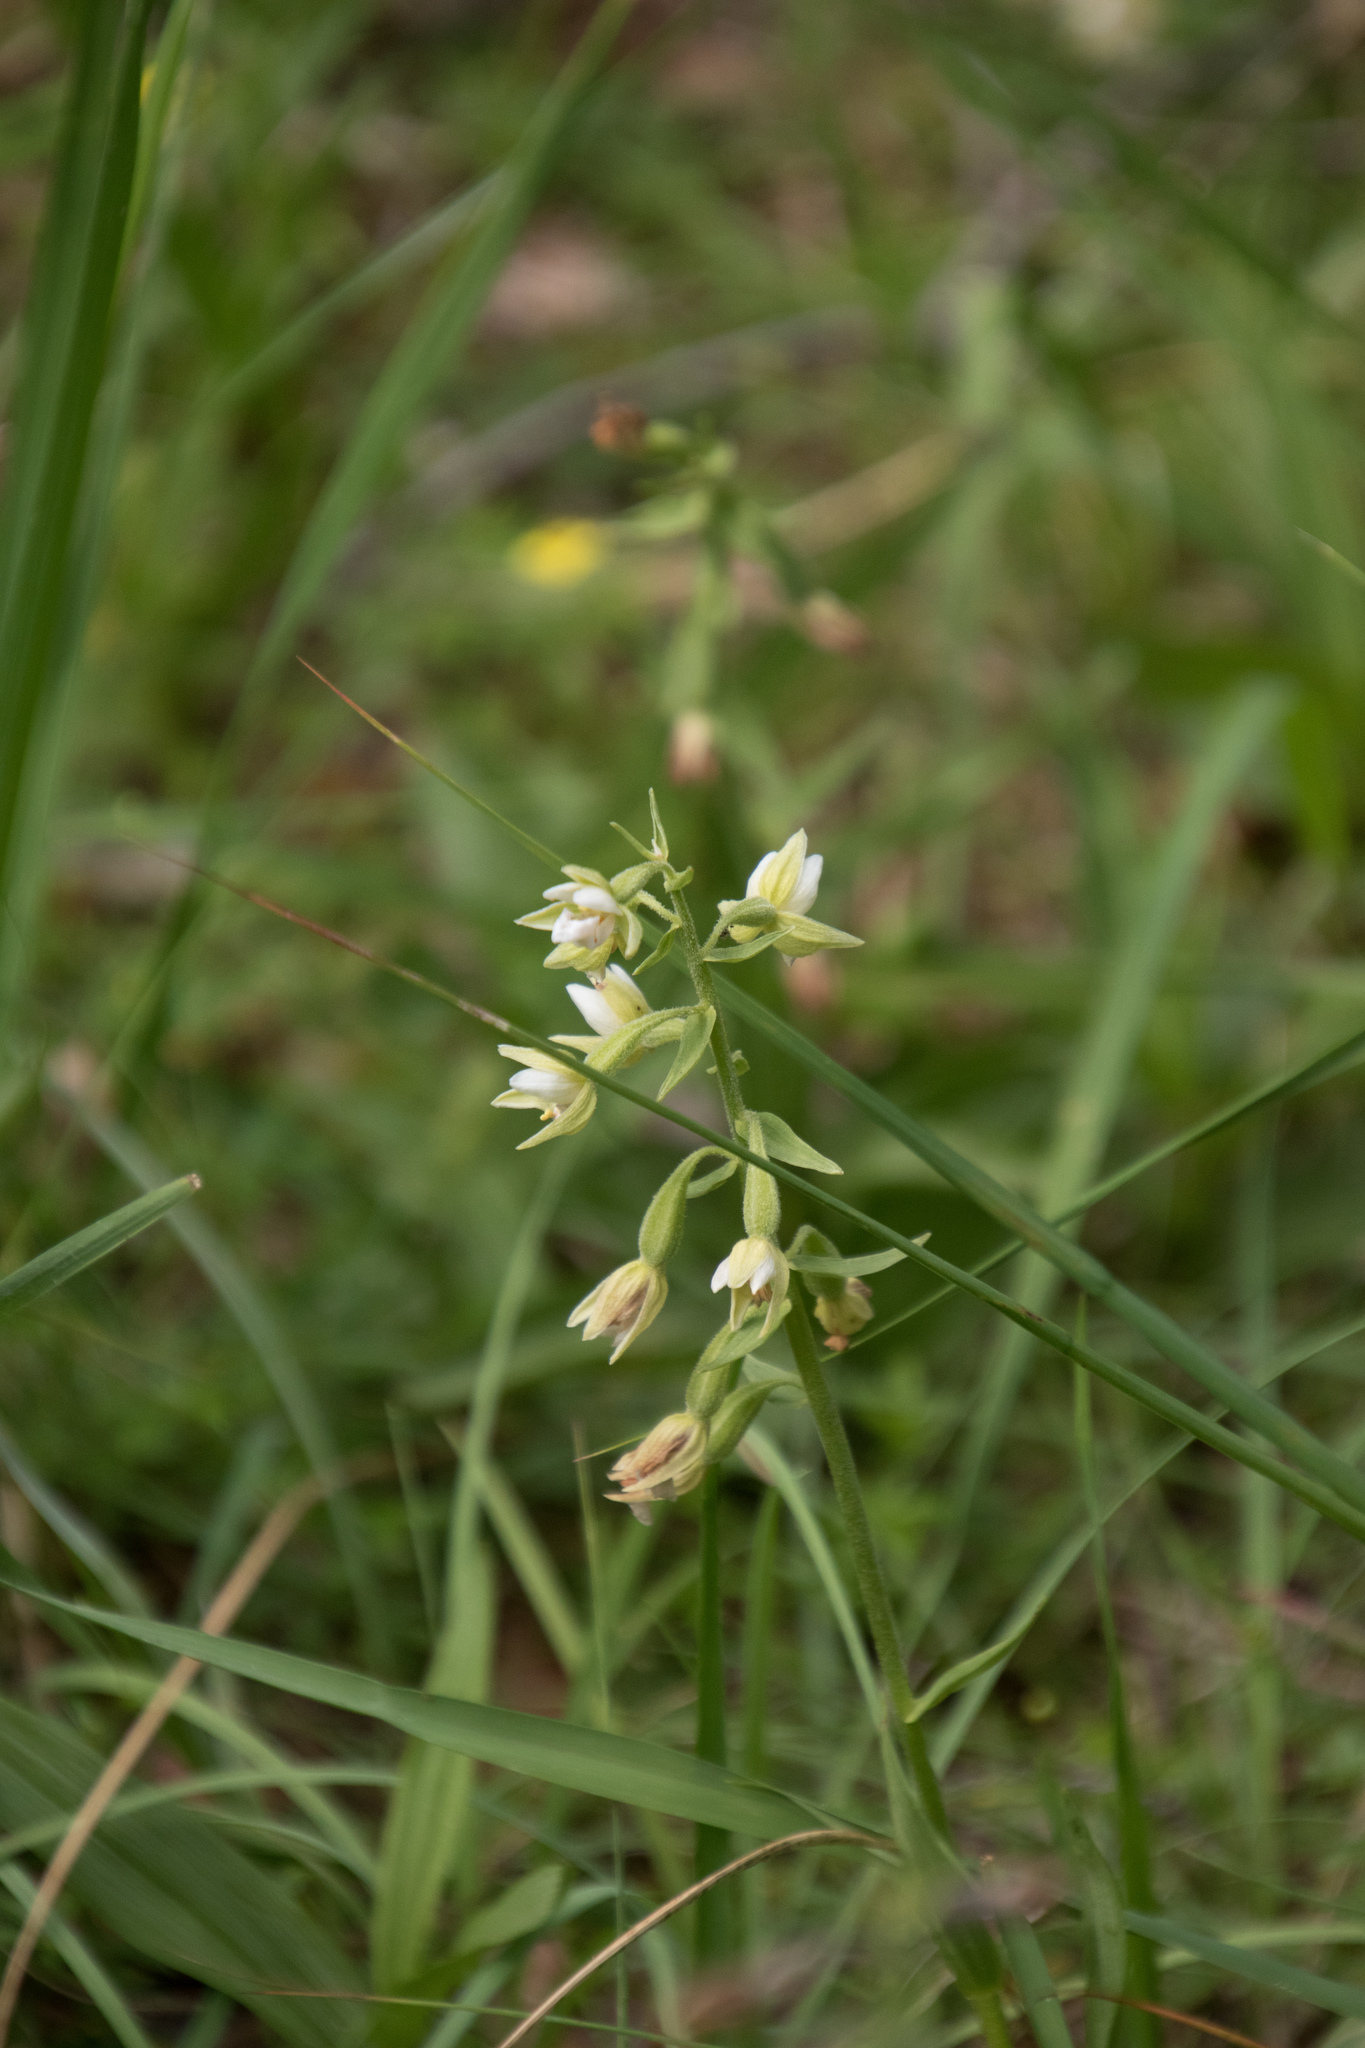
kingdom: Plantae
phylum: Tracheophyta
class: Liliopsida
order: Asparagales
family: Orchidaceae
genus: Epipactis
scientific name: Epipactis palustris
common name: Marsh helleborine
